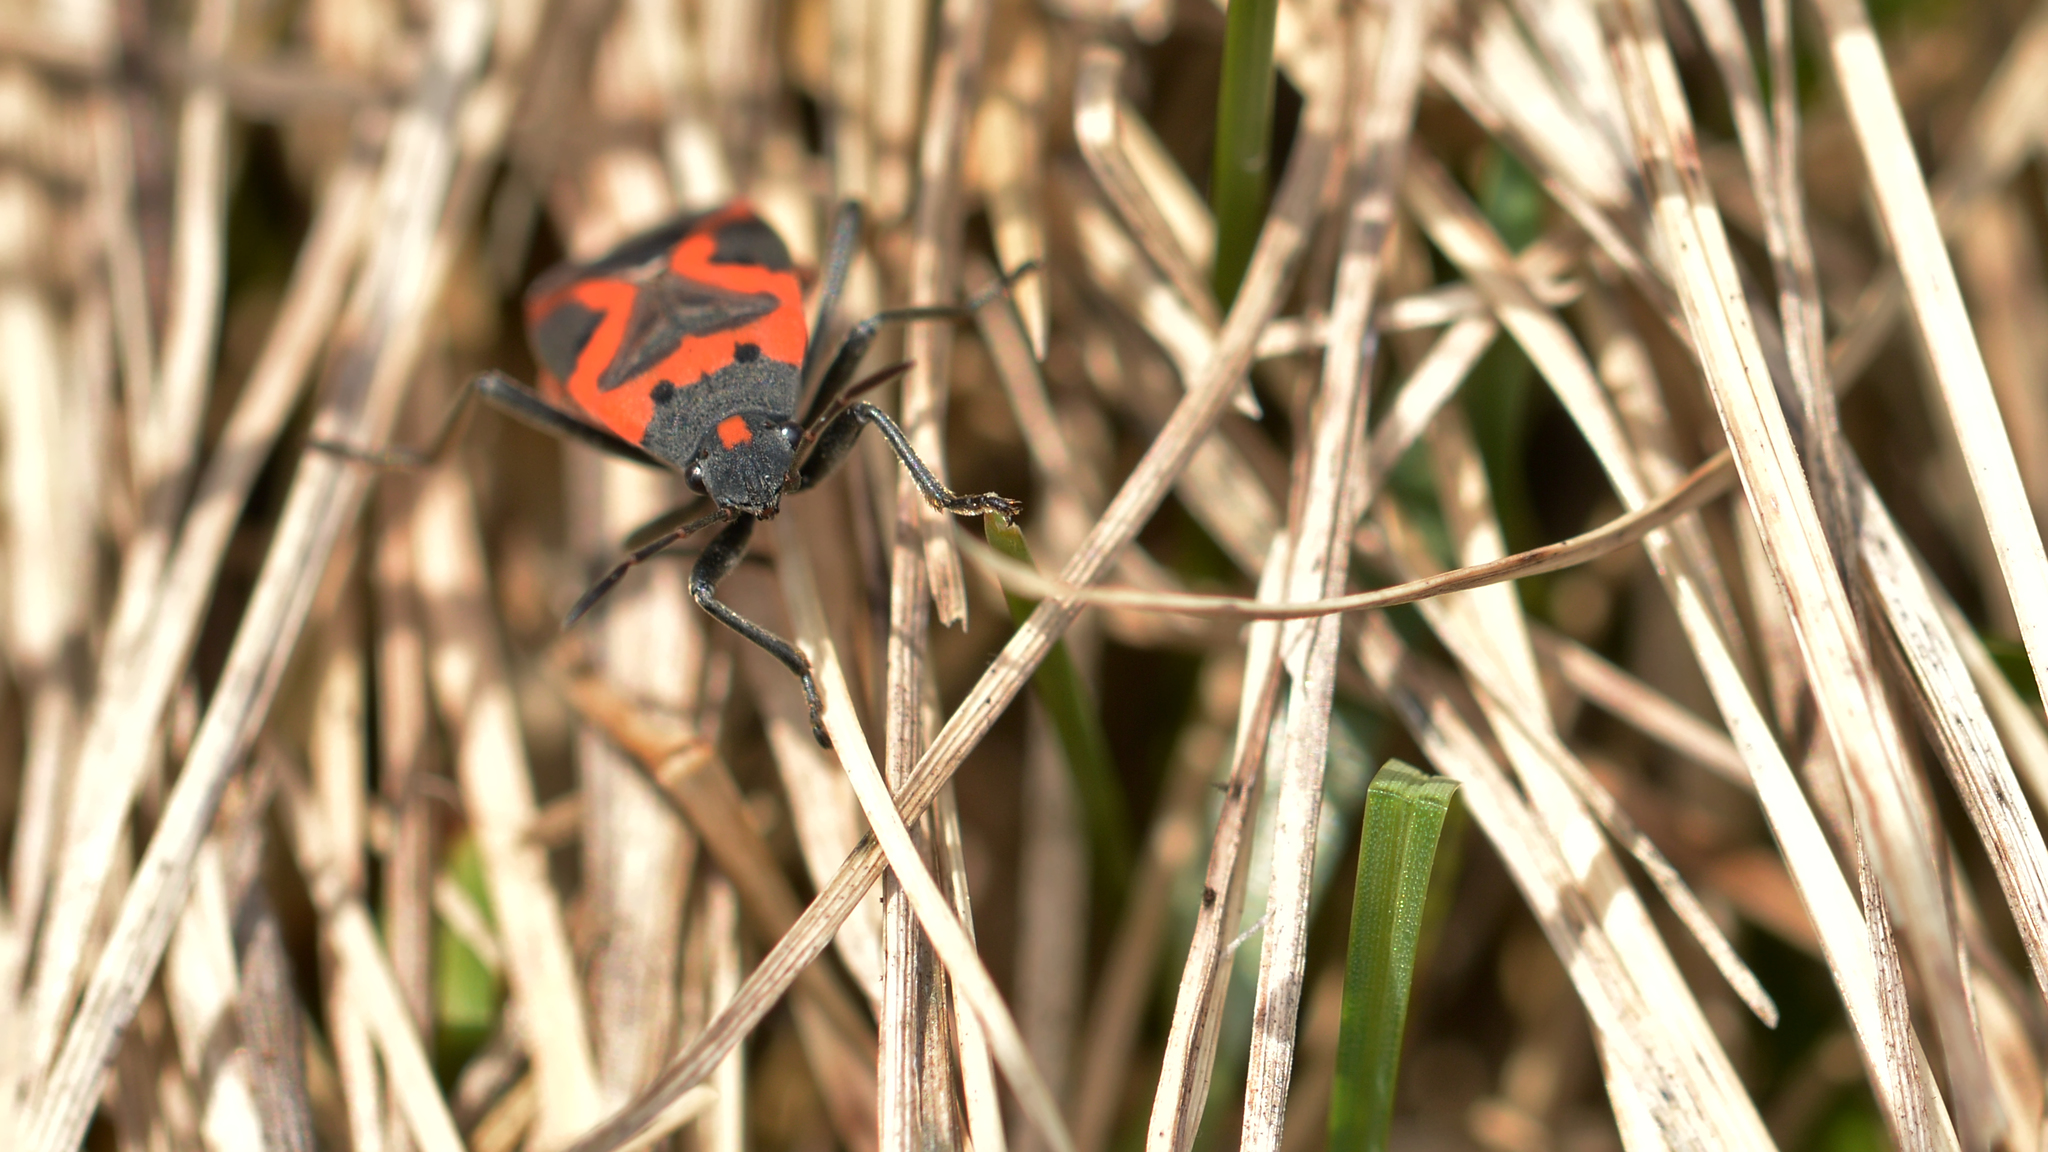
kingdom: Animalia
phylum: Arthropoda
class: Insecta
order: Hemiptera
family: Lygaeidae
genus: Lygaeus
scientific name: Lygaeus kalmii
